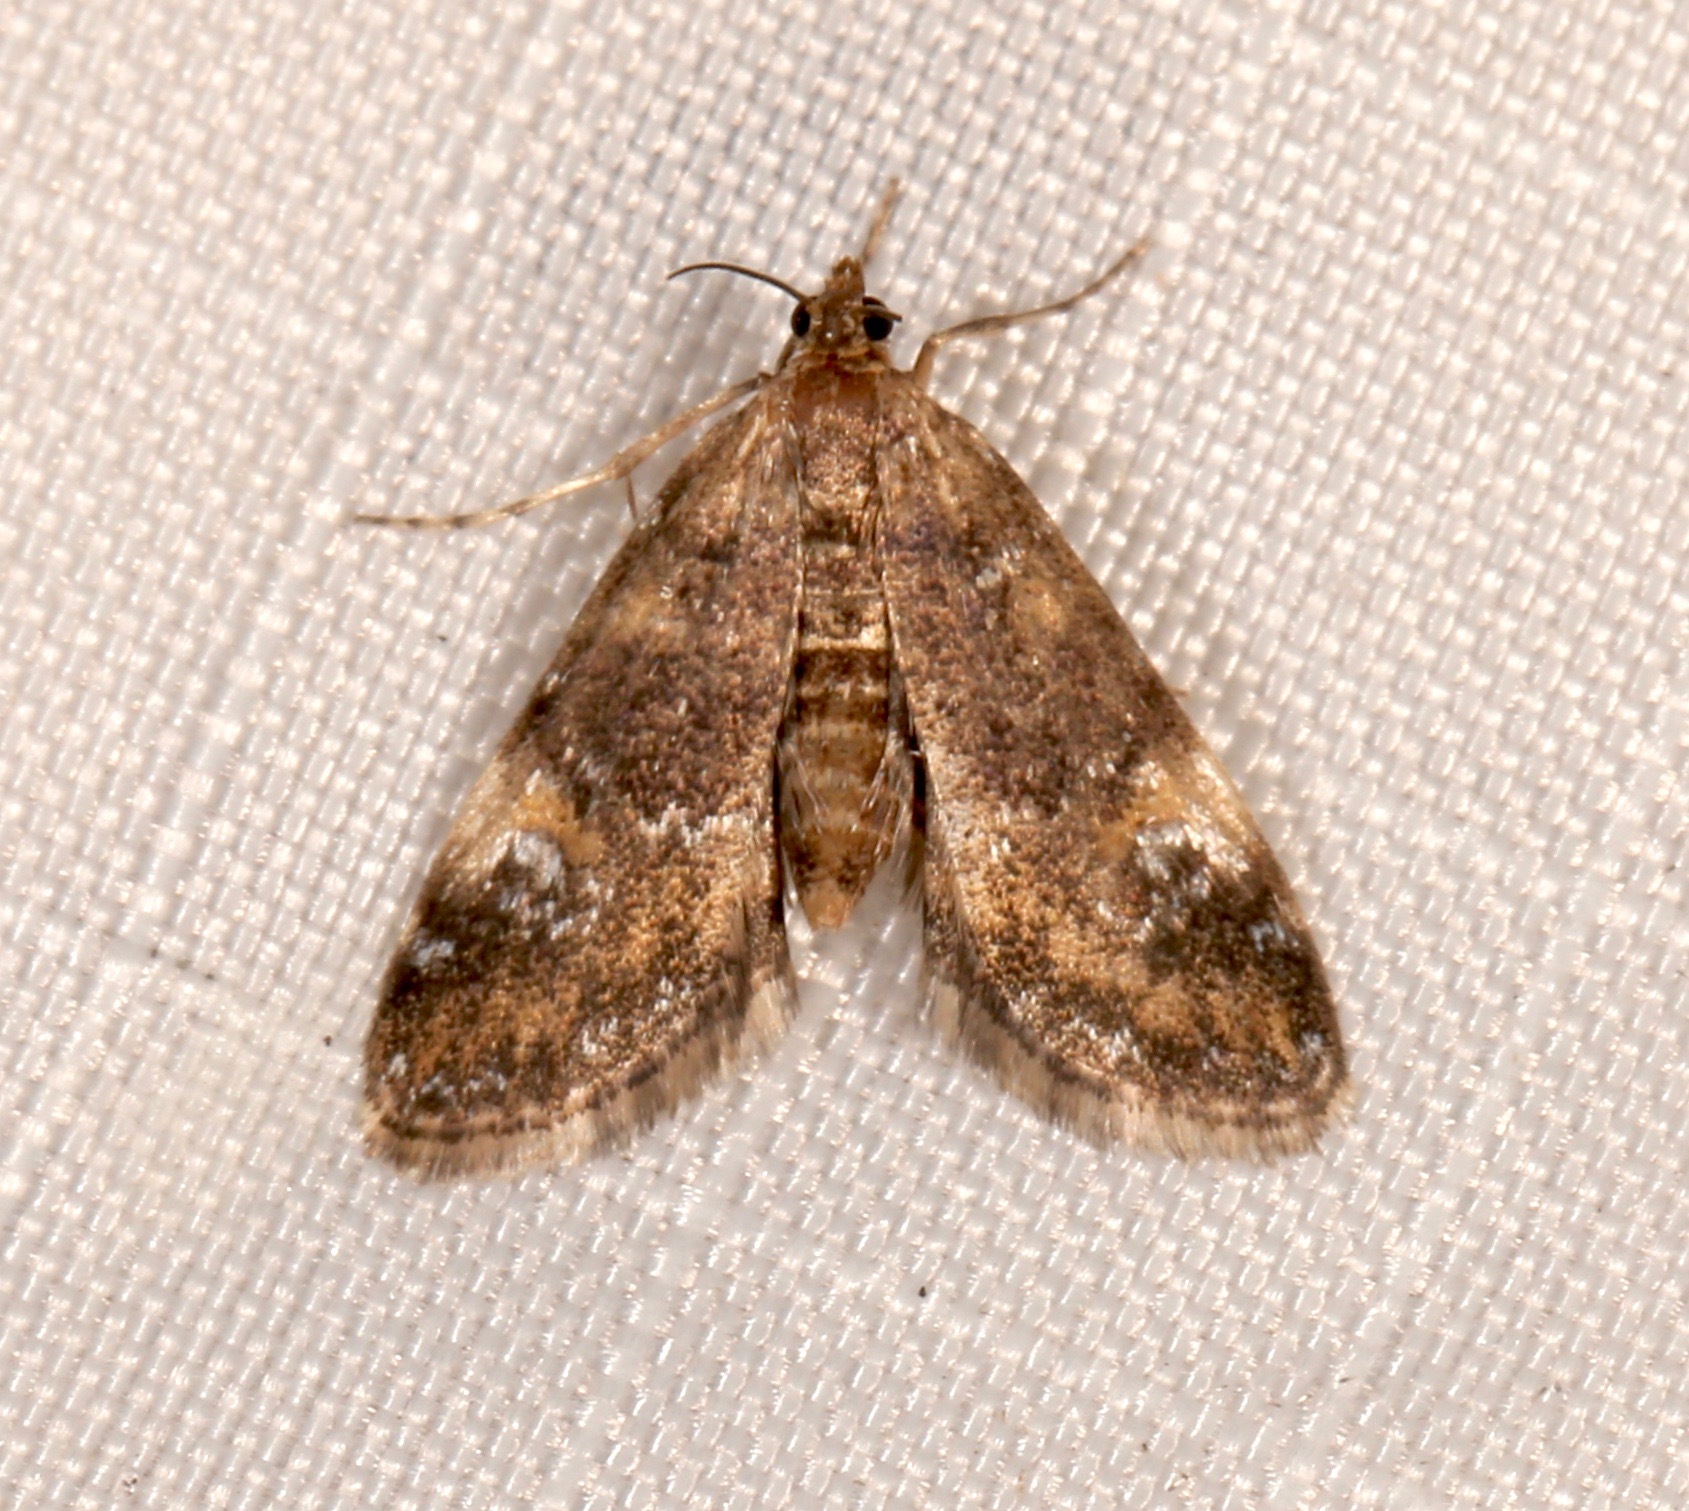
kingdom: Animalia
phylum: Arthropoda
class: Insecta
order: Lepidoptera
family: Crambidae
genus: Elophila
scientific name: Elophila obliteralis
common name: Waterlily leafcutter moth
